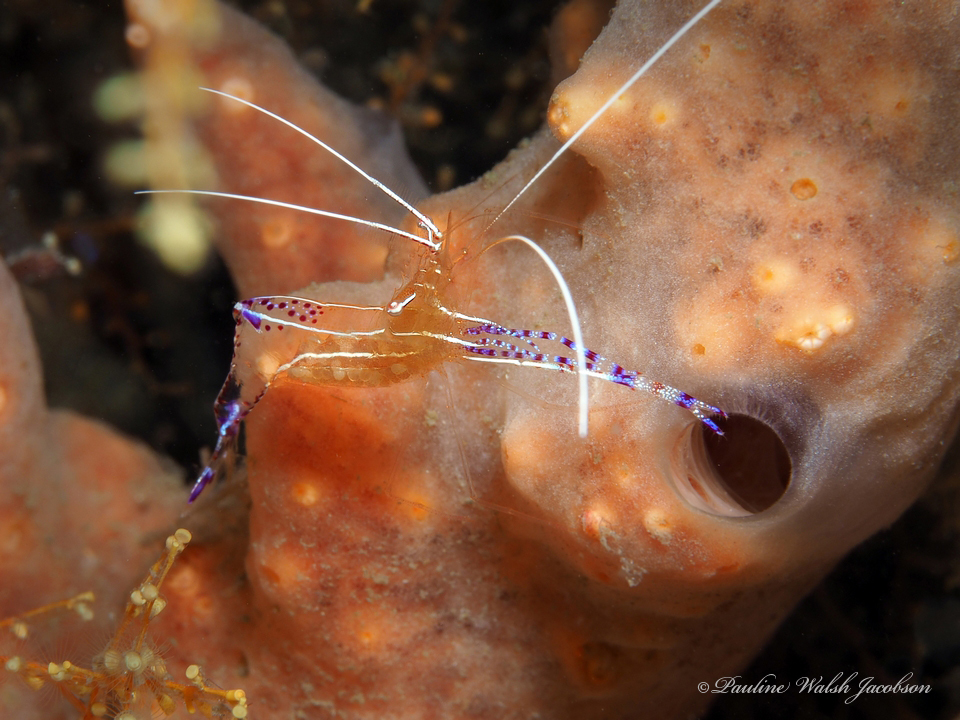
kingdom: Animalia
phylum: Arthropoda
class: Malacostraca
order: Decapoda
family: Palaemonidae
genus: Ancylomenes
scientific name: Ancylomenes pedersoni
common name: Pederson's cleaning shrimp
